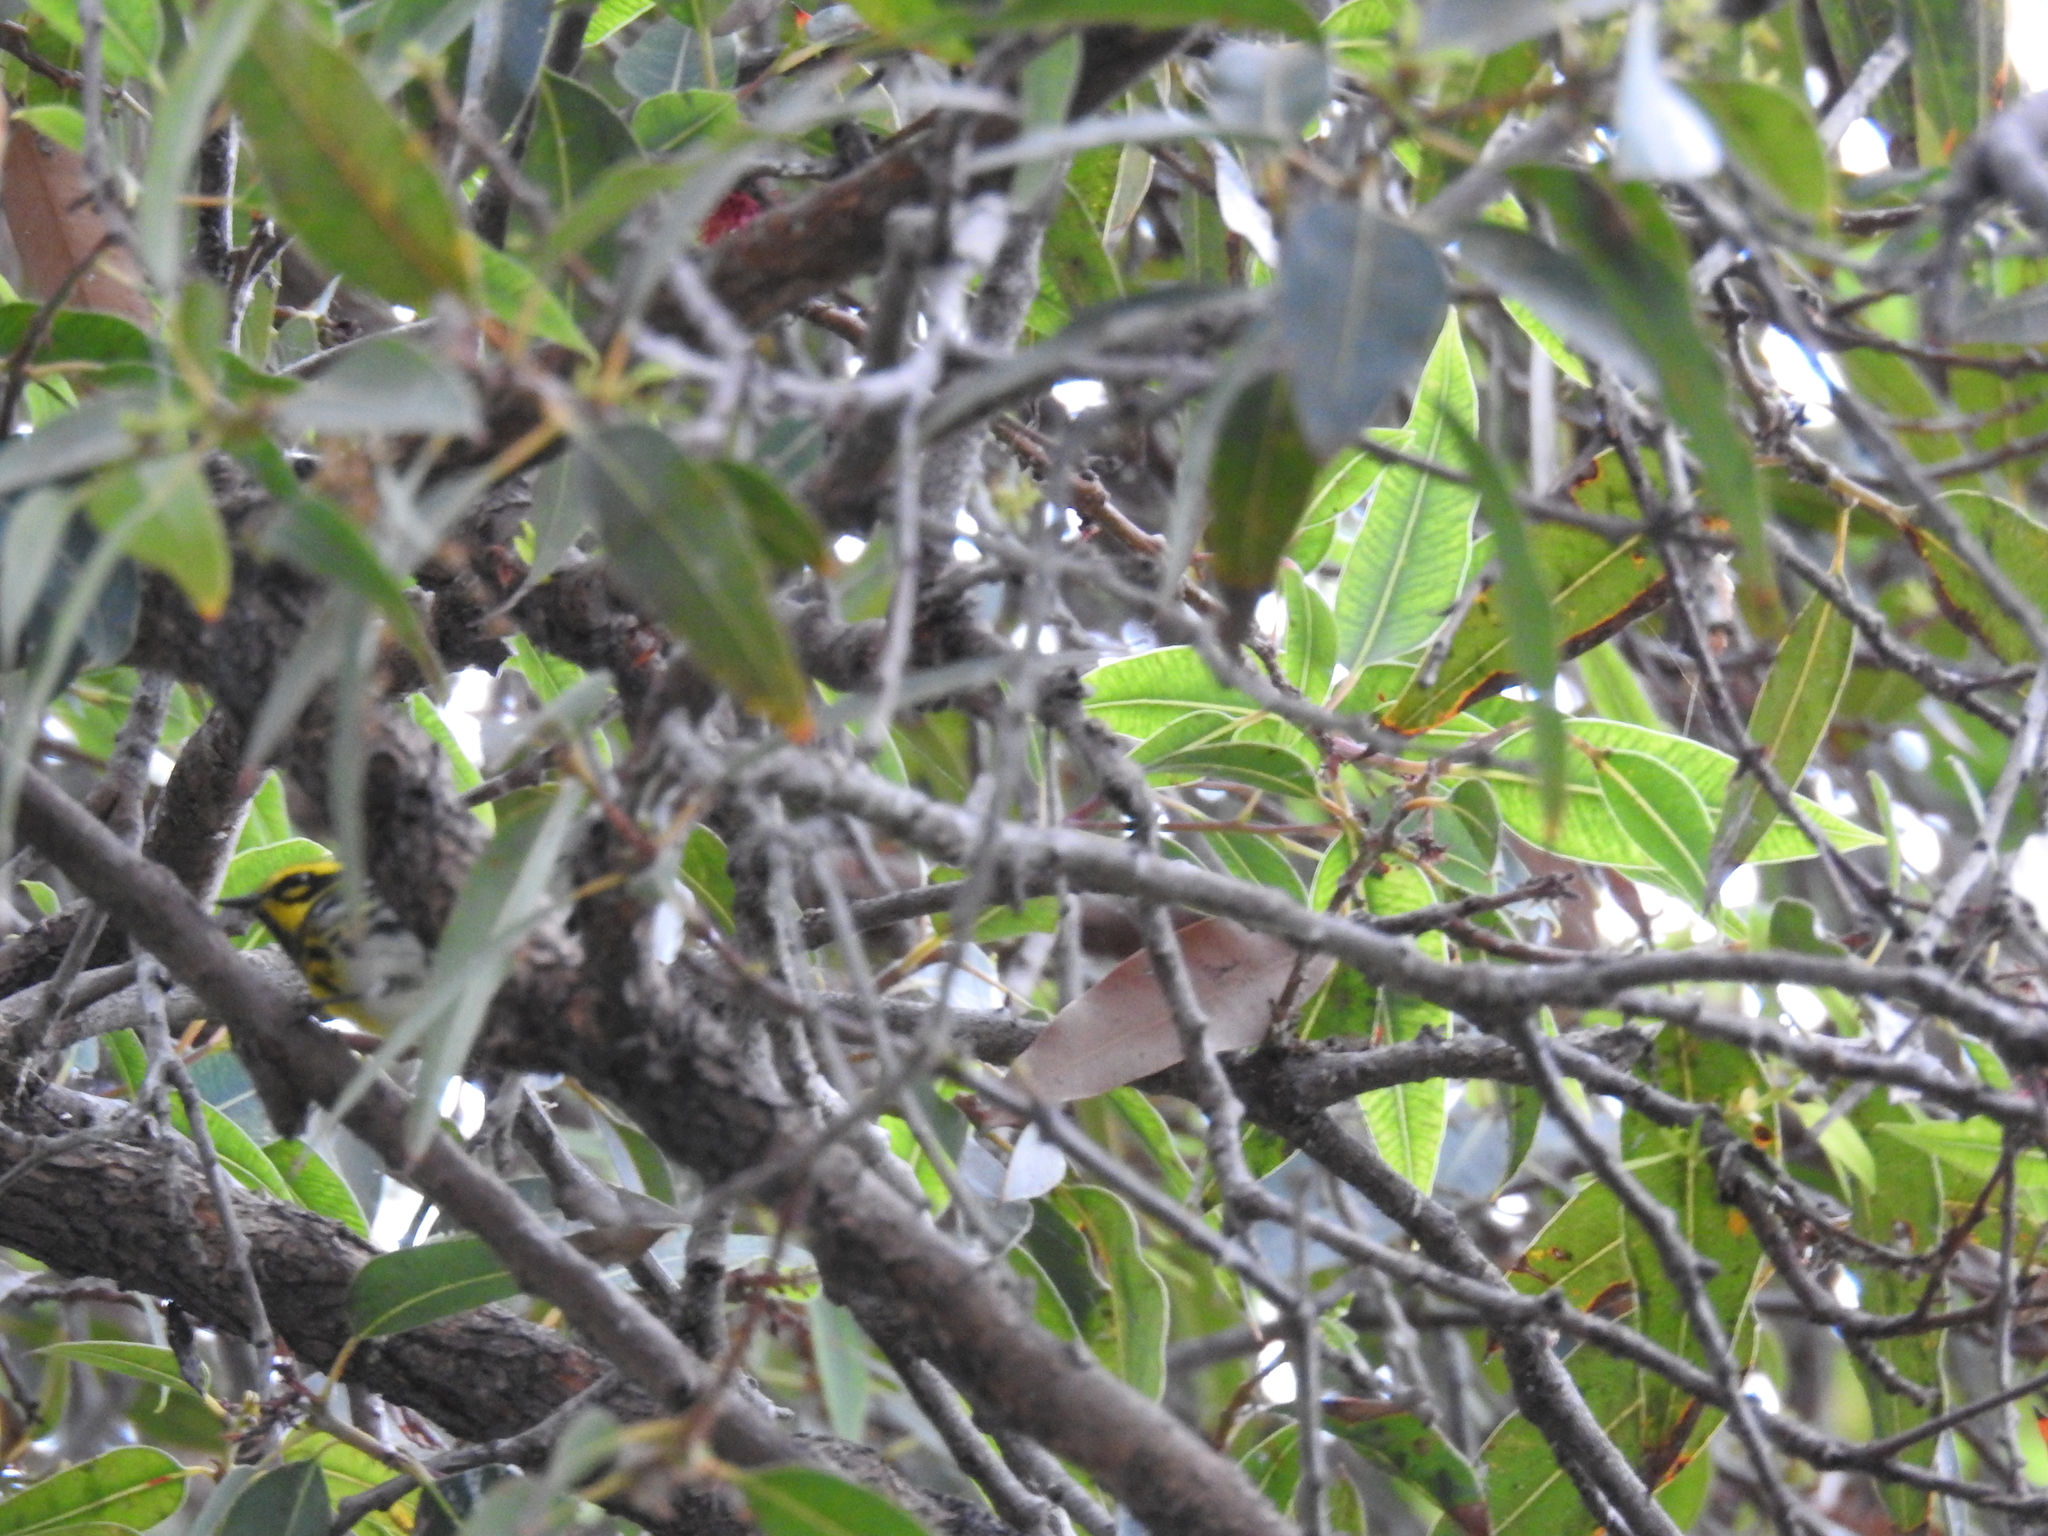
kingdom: Animalia
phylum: Chordata
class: Aves
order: Passeriformes
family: Parulidae
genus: Setophaga
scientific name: Setophaga townsendi
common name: Townsend's warbler
